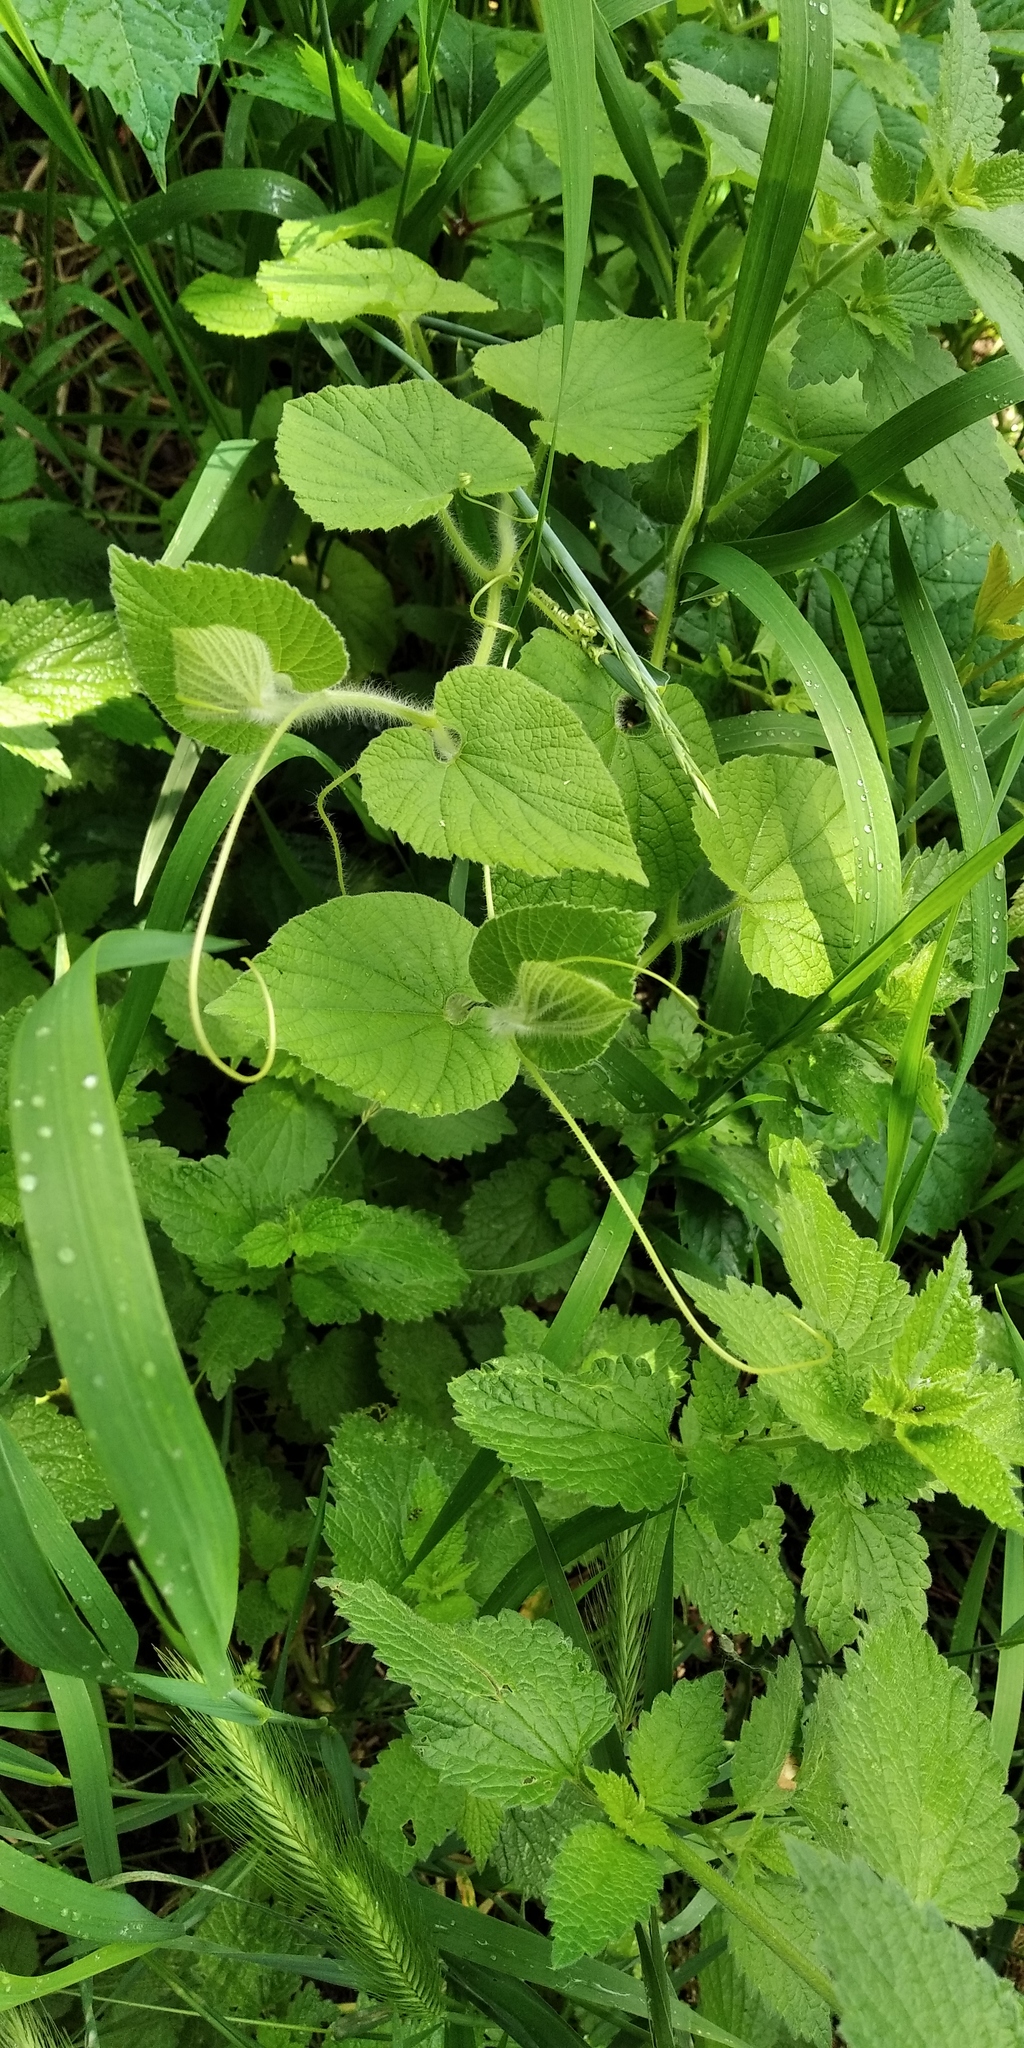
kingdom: Plantae
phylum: Tracheophyta
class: Magnoliopsida
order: Cucurbitales
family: Cucurbitaceae
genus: Thladiantha
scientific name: Thladiantha dubia
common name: Manchu tubergourd
